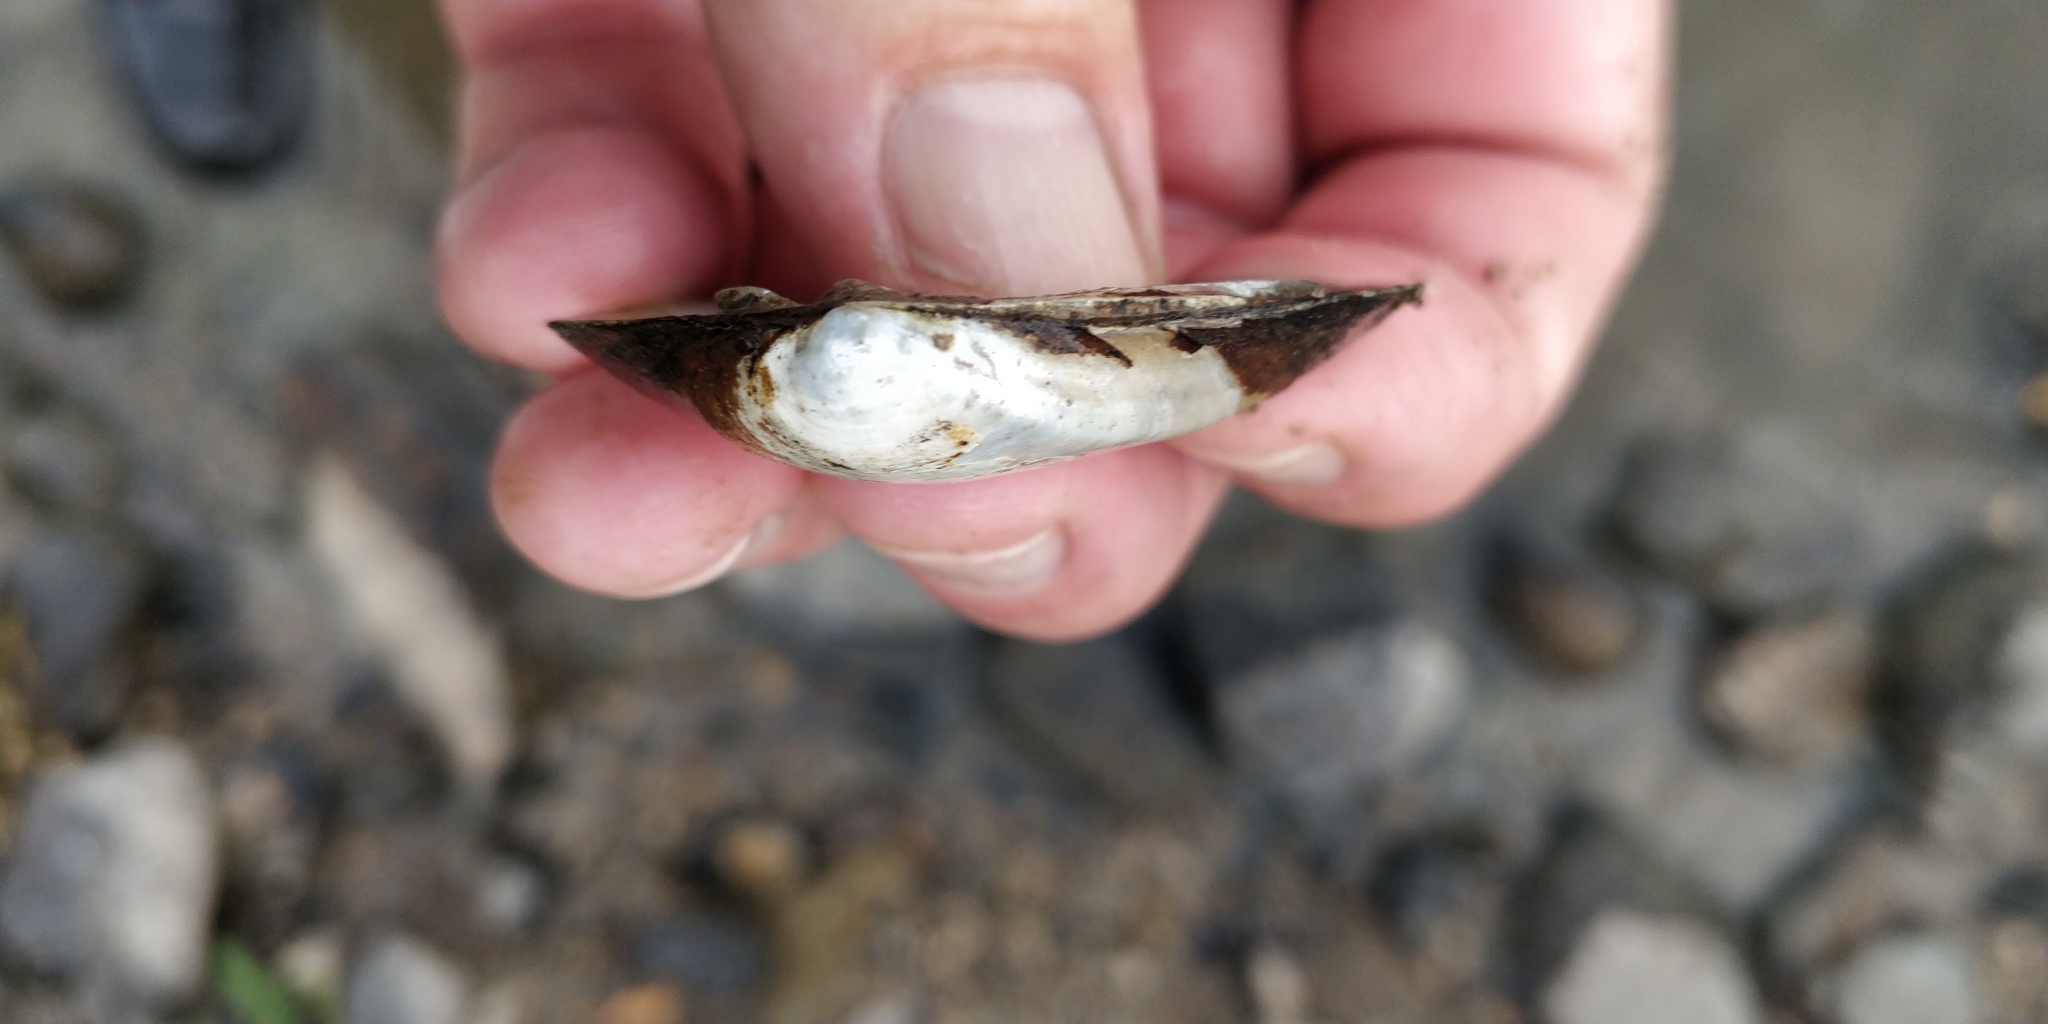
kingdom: Animalia
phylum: Mollusca
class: Bivalvia
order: Unionida
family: Unionidae
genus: Fusconaia
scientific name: Fusconaia flava
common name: Wabash pigtoe
